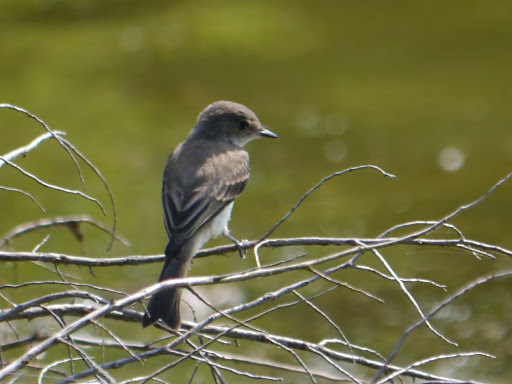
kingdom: Animalia
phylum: Chordata
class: Aves
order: Passeriformes
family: Tyrannidae
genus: Sayornis
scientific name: Sayornis phoebe
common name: Eastern phoebe
